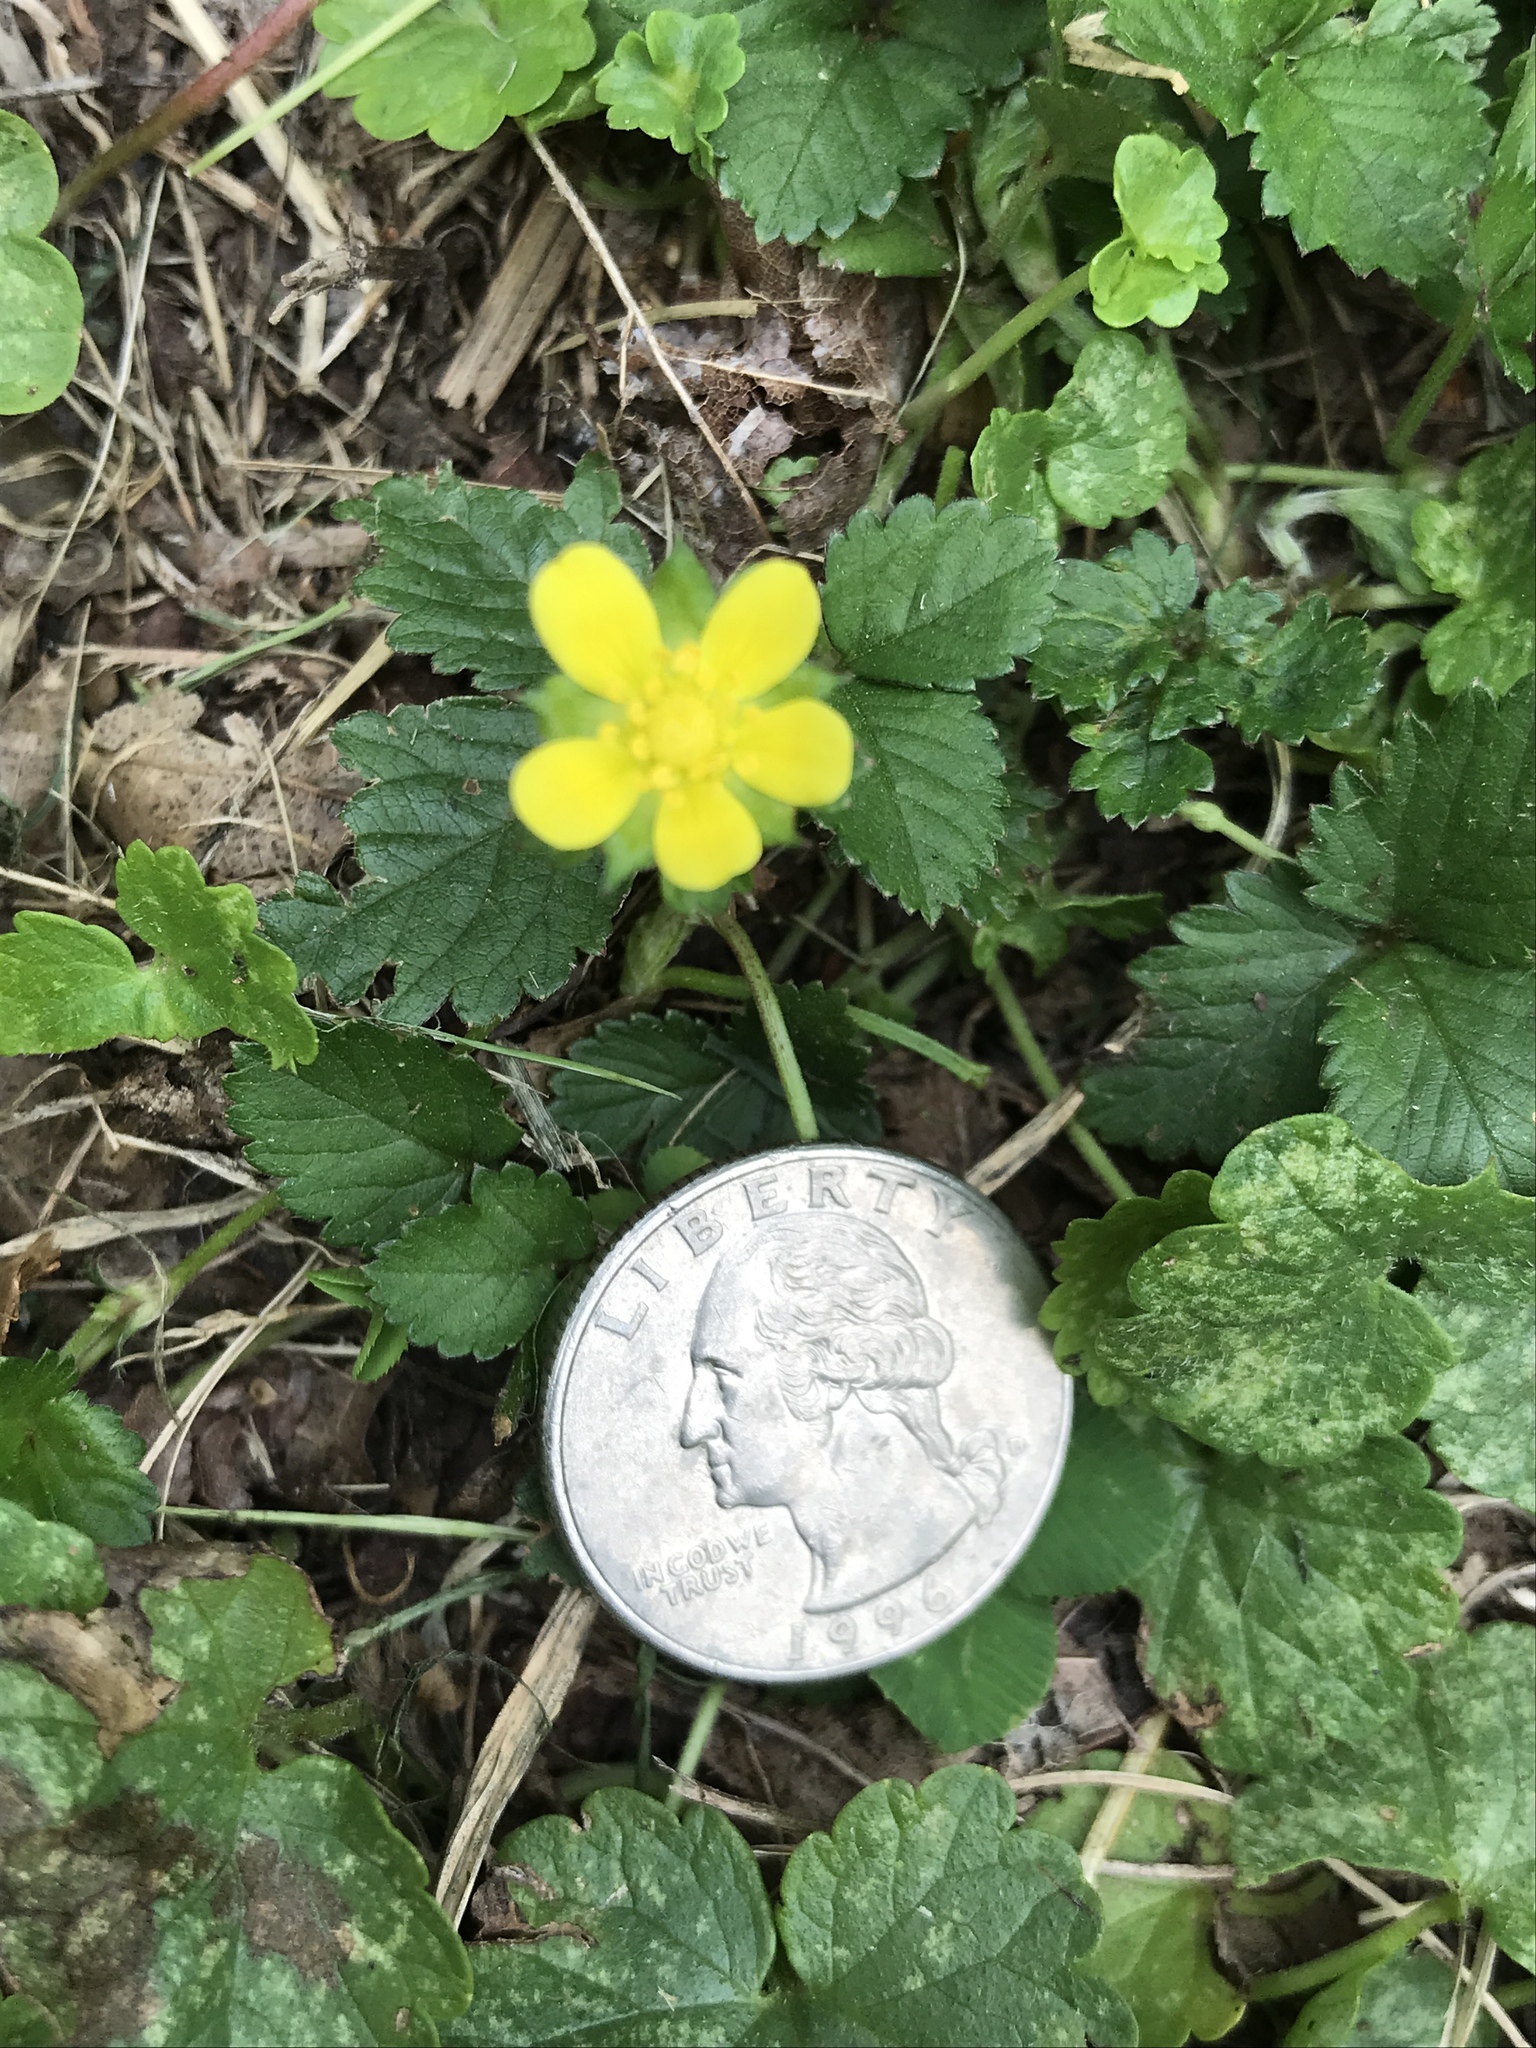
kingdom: Plantae
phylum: Tracheophyta
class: Magnoliopsida
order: Rosales
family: Rosaceae
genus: Potentilla
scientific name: Potentilla indica
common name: Yellow-flowered strawberry
